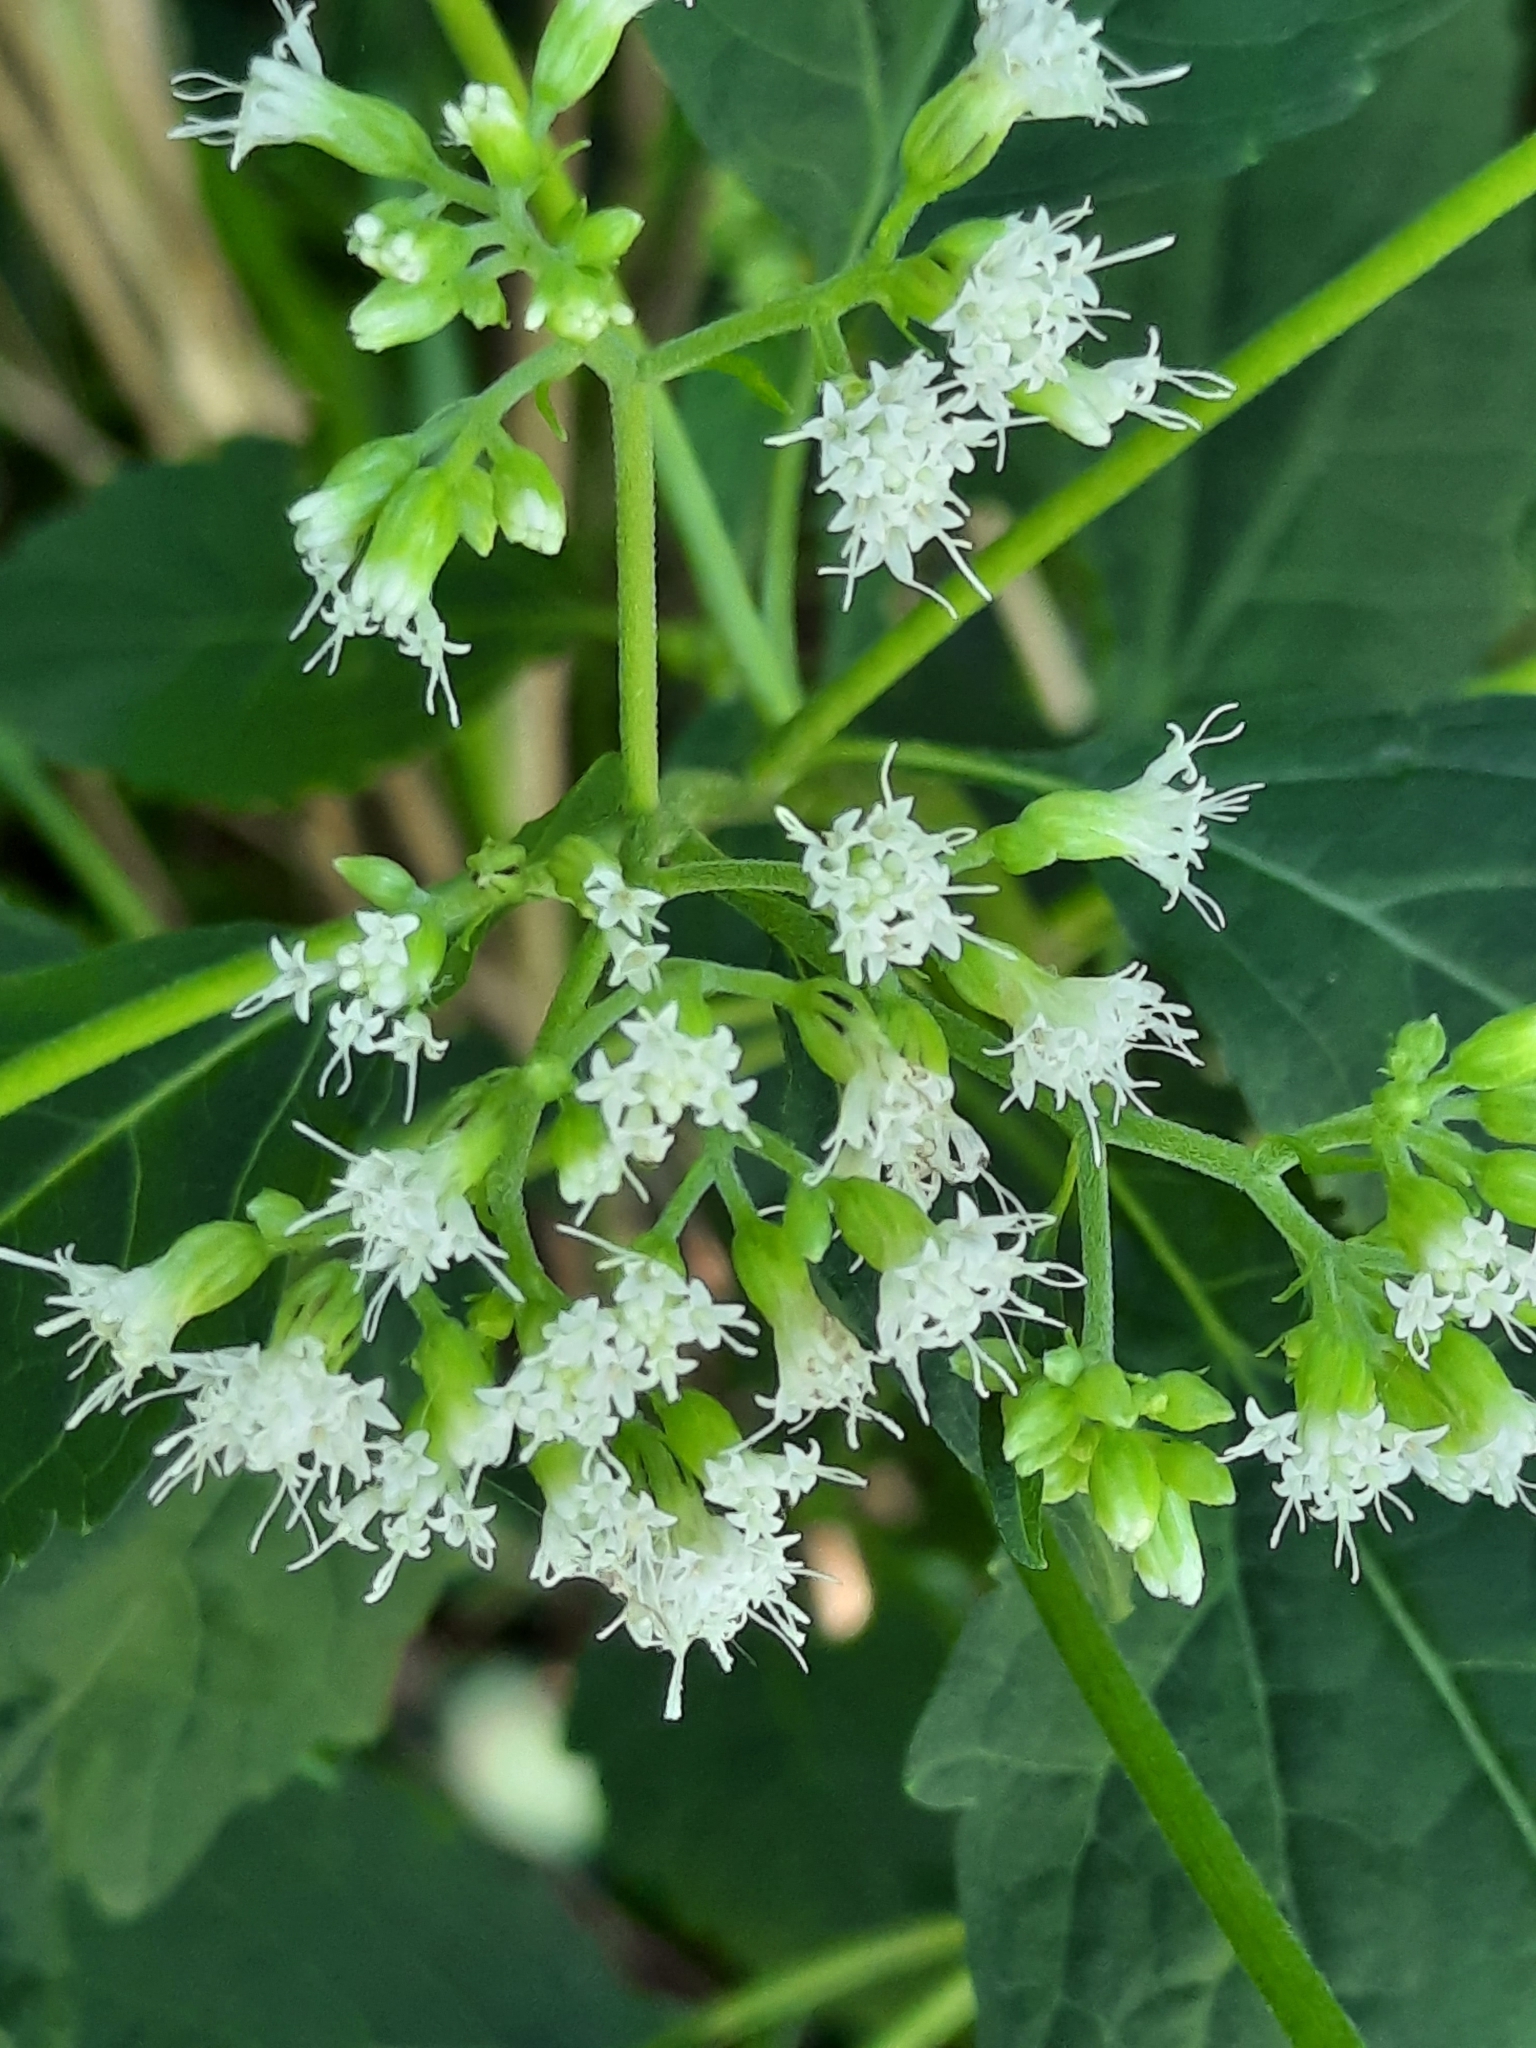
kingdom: Plantae
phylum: Tracheophyta
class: Magnoliopsida
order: Asterales
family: Asteraceae
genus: Ageratina
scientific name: Ageratina altissima
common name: White snakeroot
